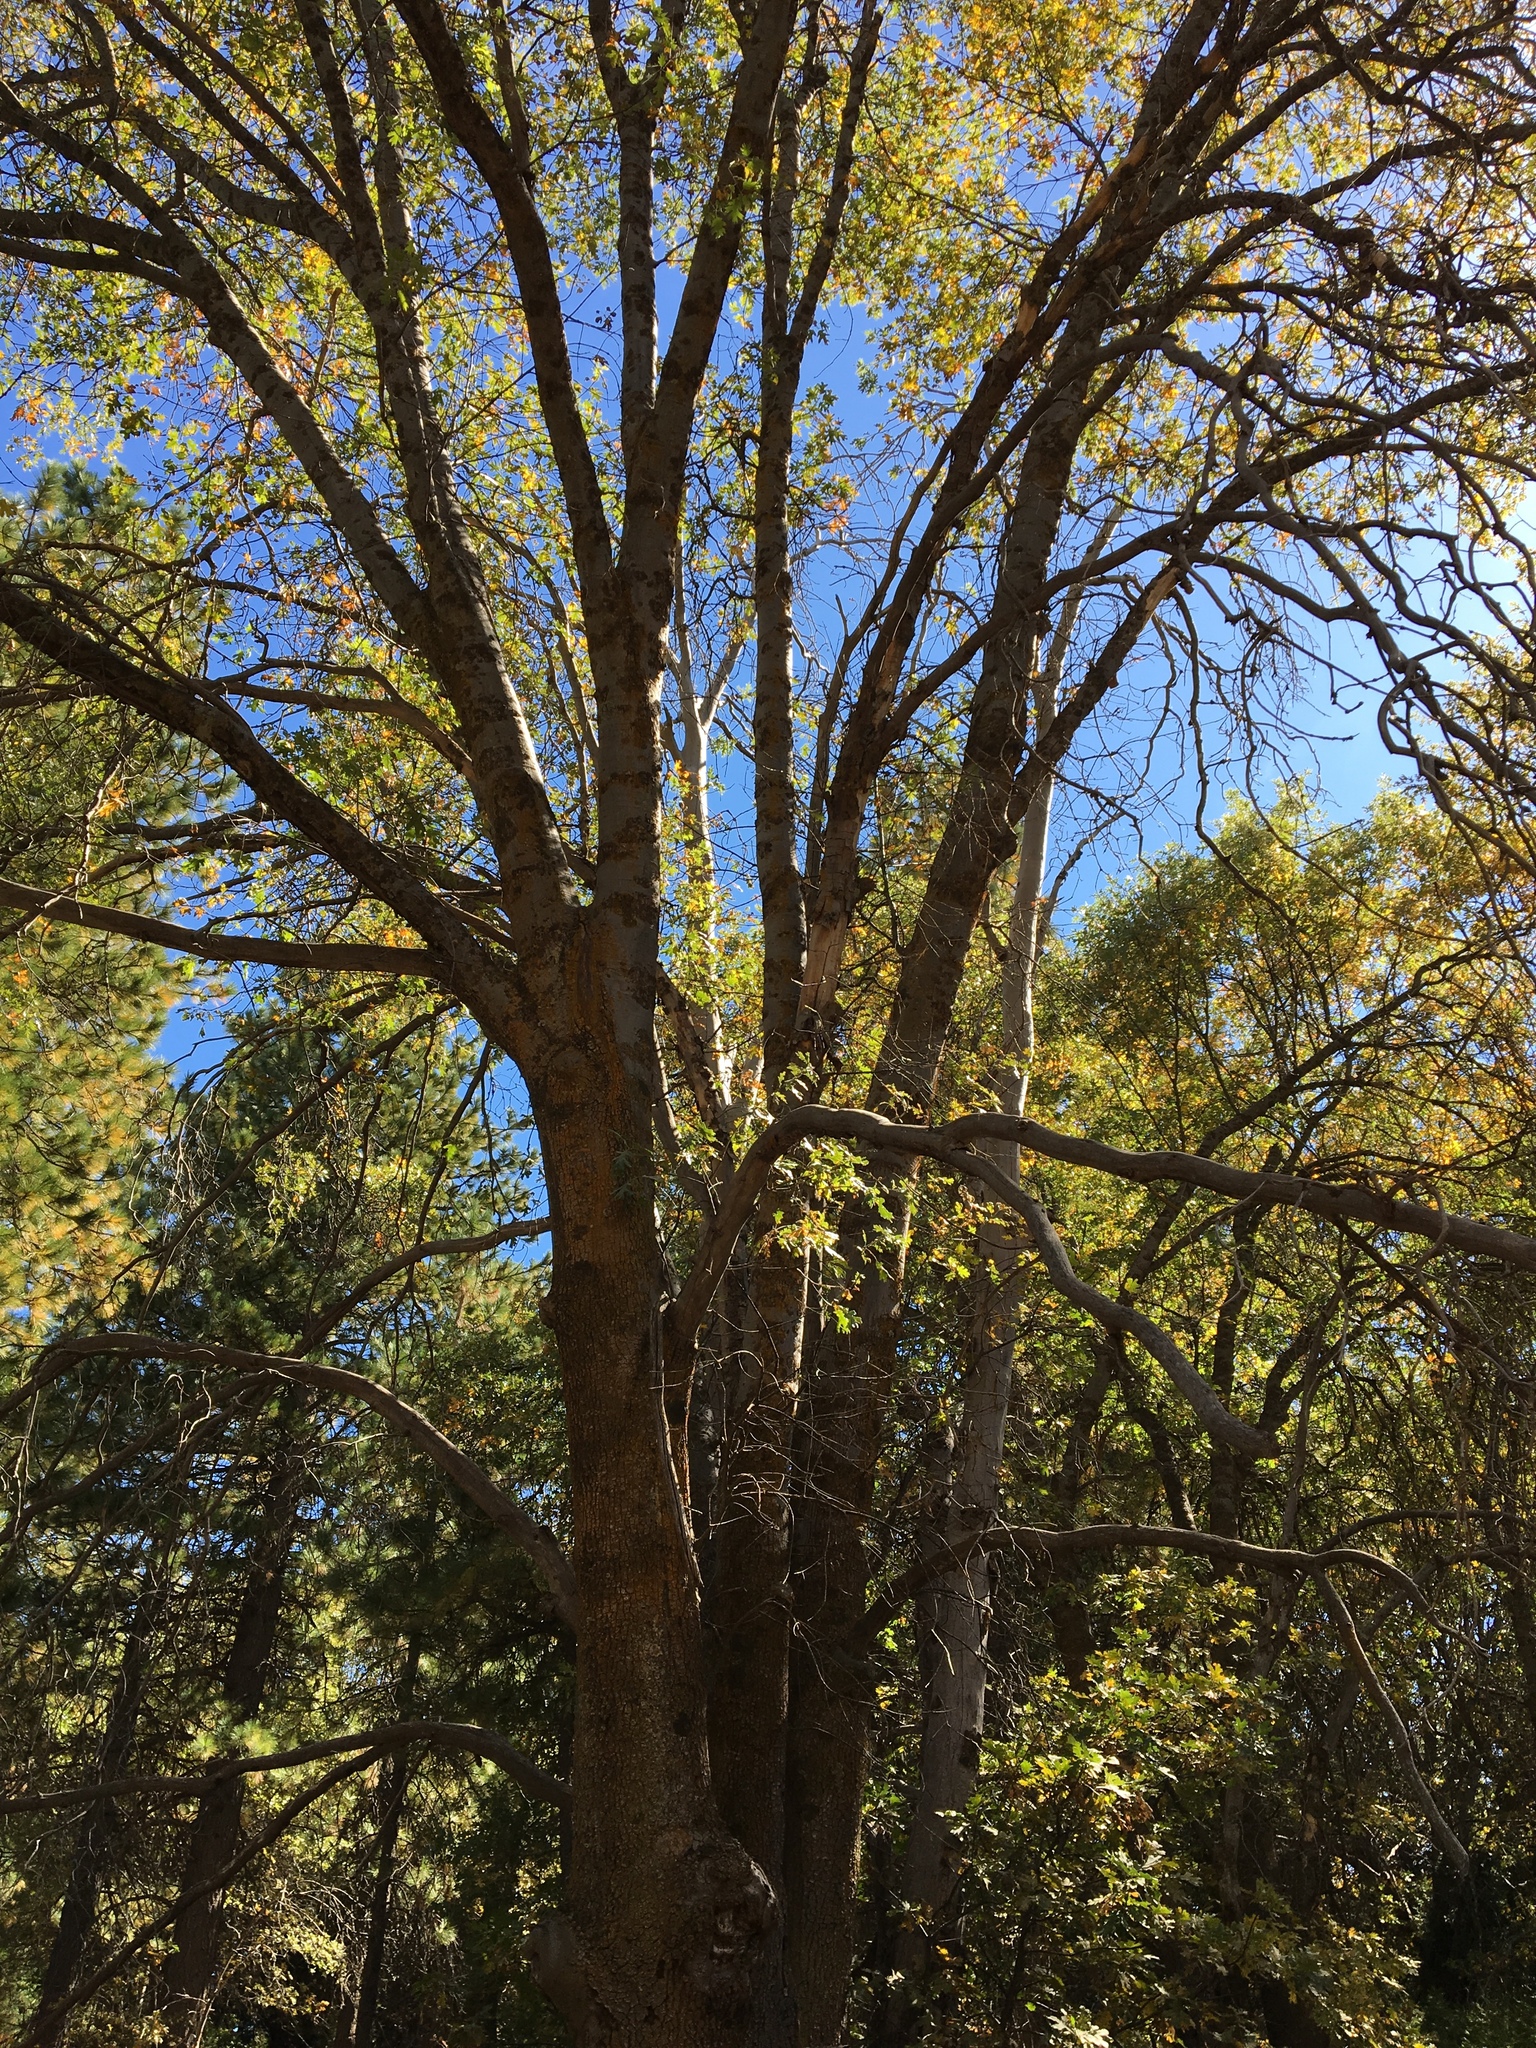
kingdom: Plantae
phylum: Tracheophyta
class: Magnoliopsida
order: Fagales
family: Fagaceae
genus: Quercus
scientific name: Quercus kelloggii
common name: California black oak
